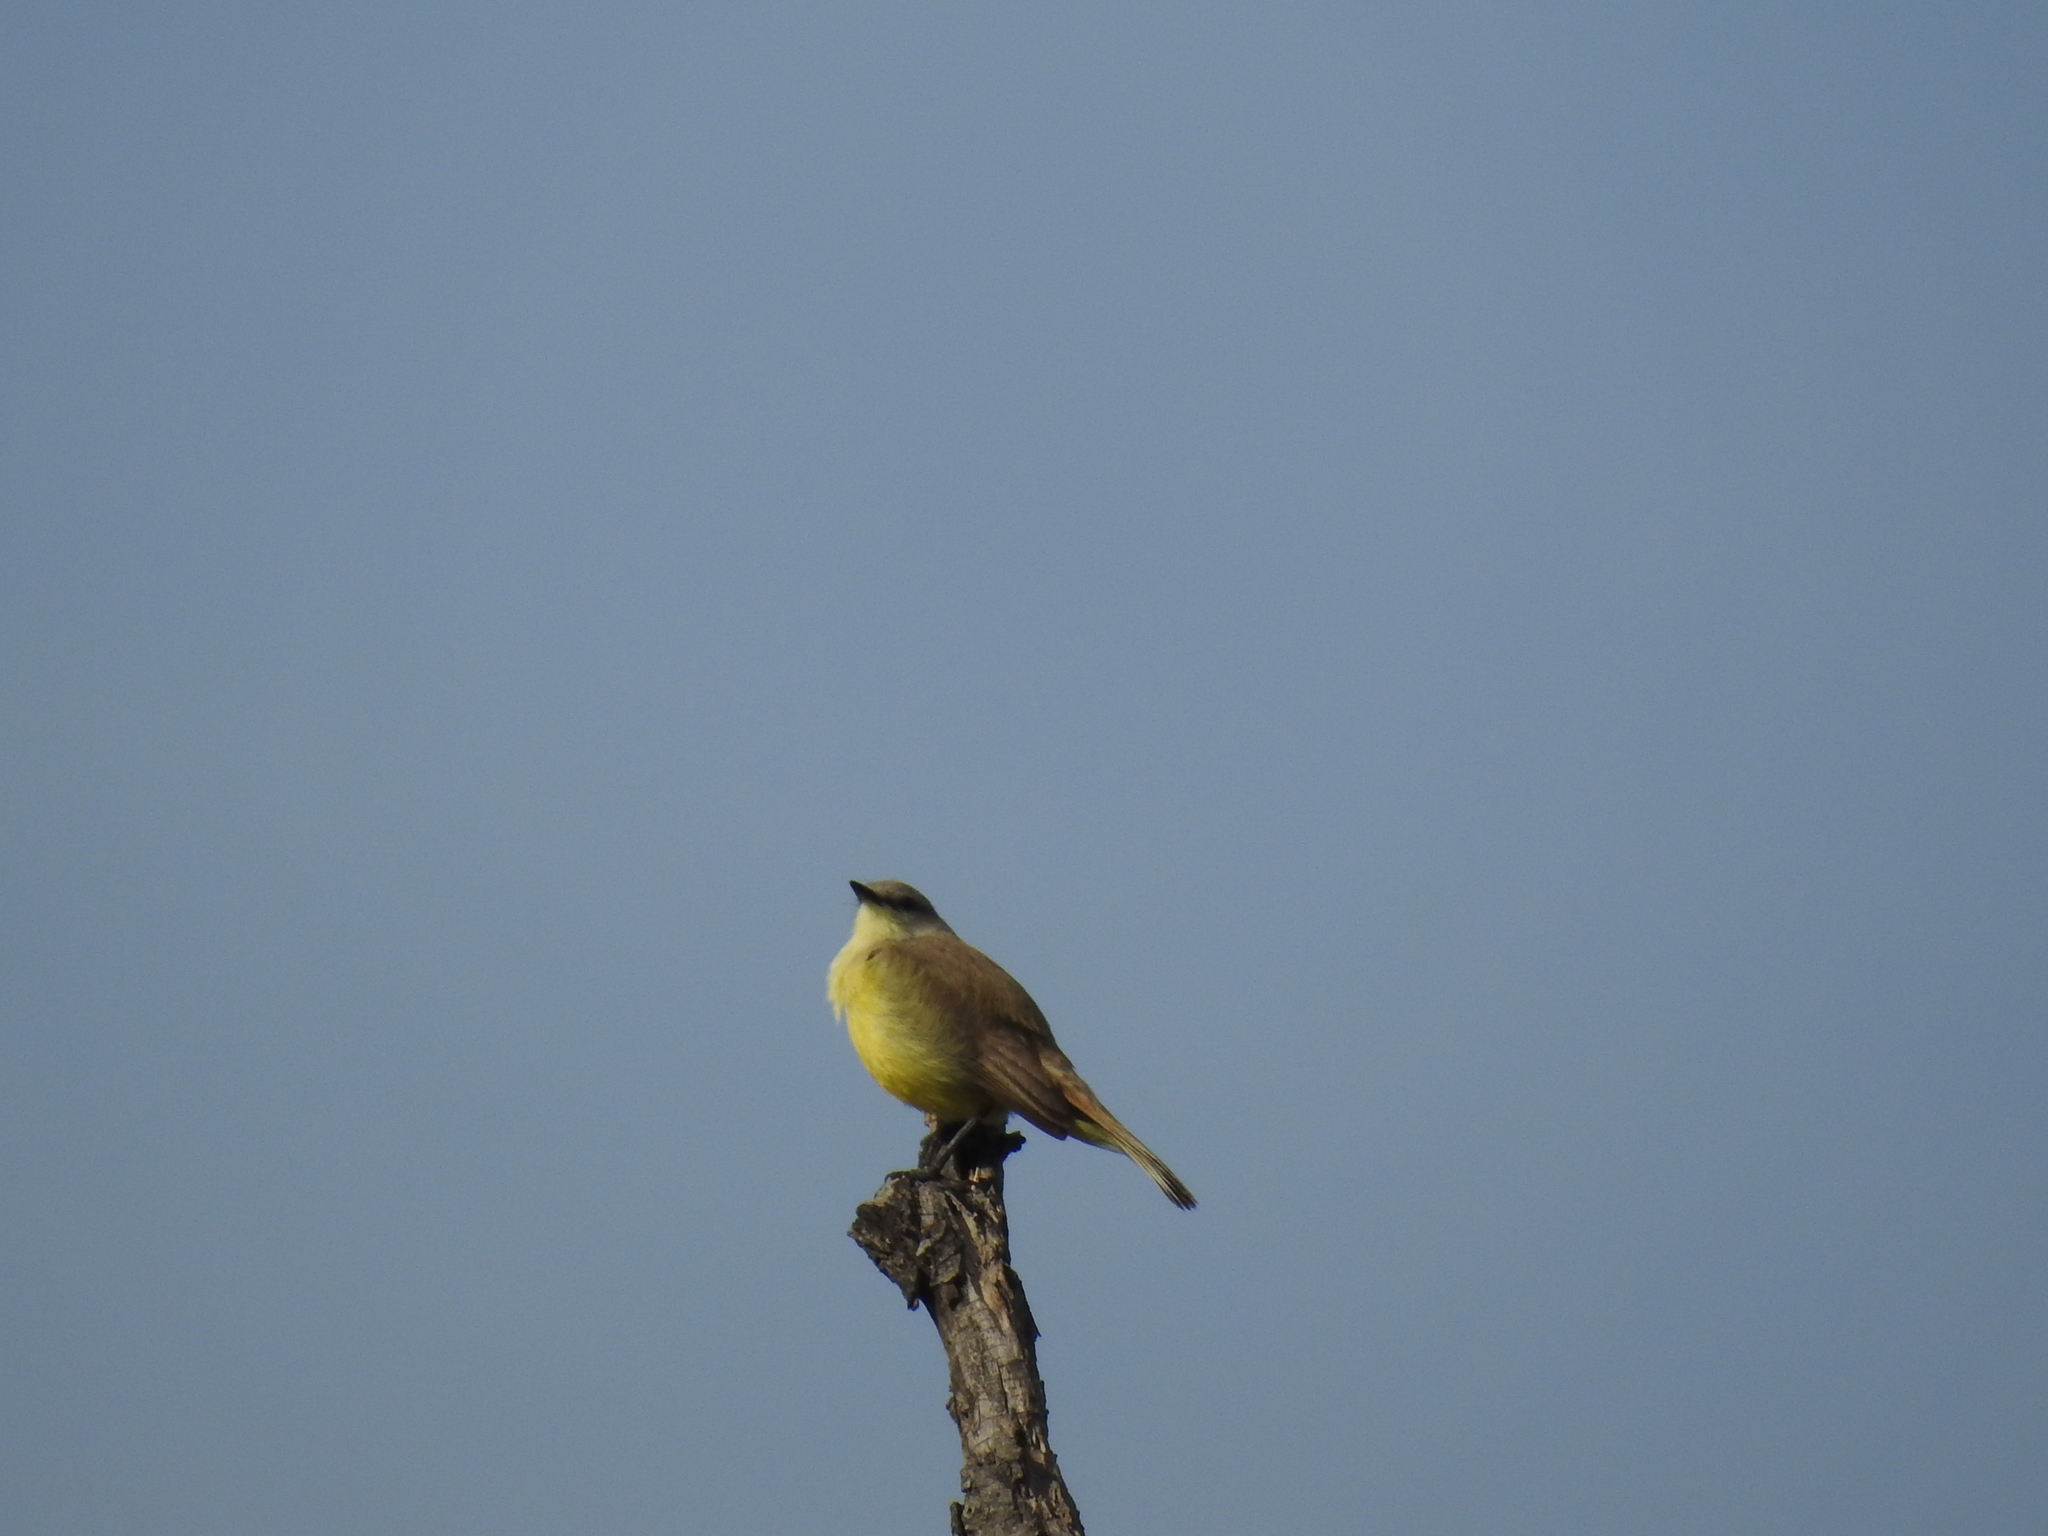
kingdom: Animalia
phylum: Chordata
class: Aves
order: Passeriformes
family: Tyrannidae
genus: Machetornis
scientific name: Machetornis rixosa
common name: Cattle tyrant
